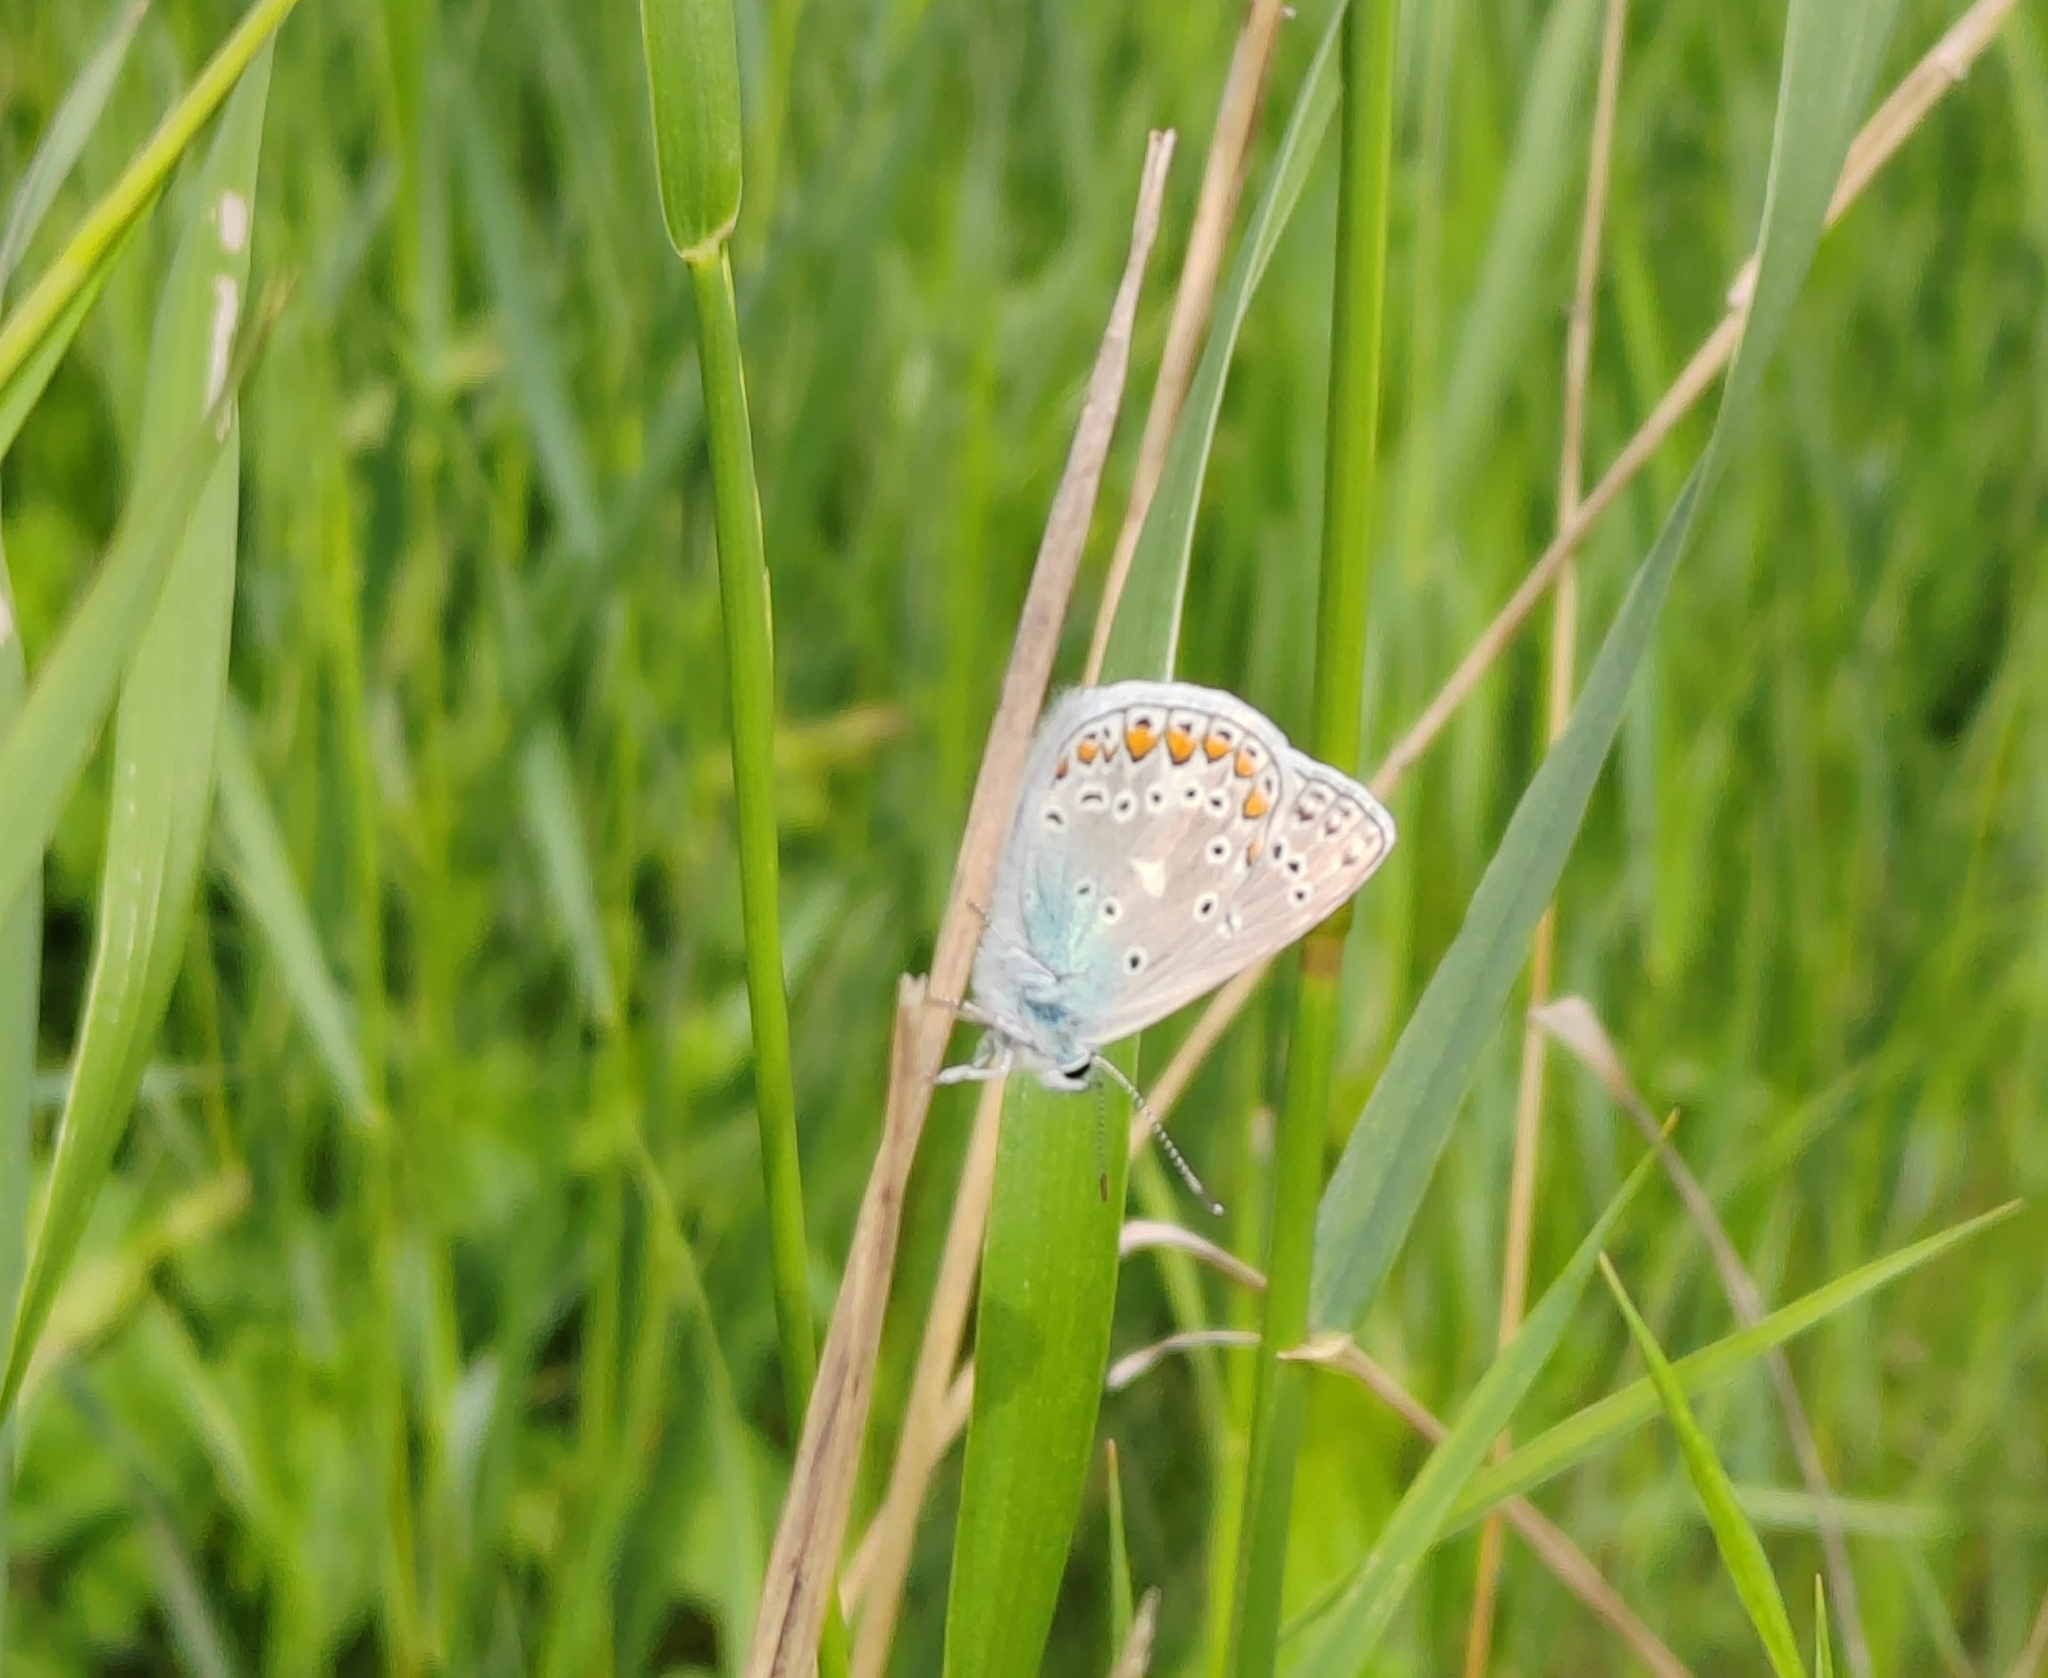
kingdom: Animalia
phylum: Arthropoda
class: Insecta
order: Lepidoptera
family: Lycaenidae
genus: Polyommatus
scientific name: Polyommatus icarus
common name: Common blue
